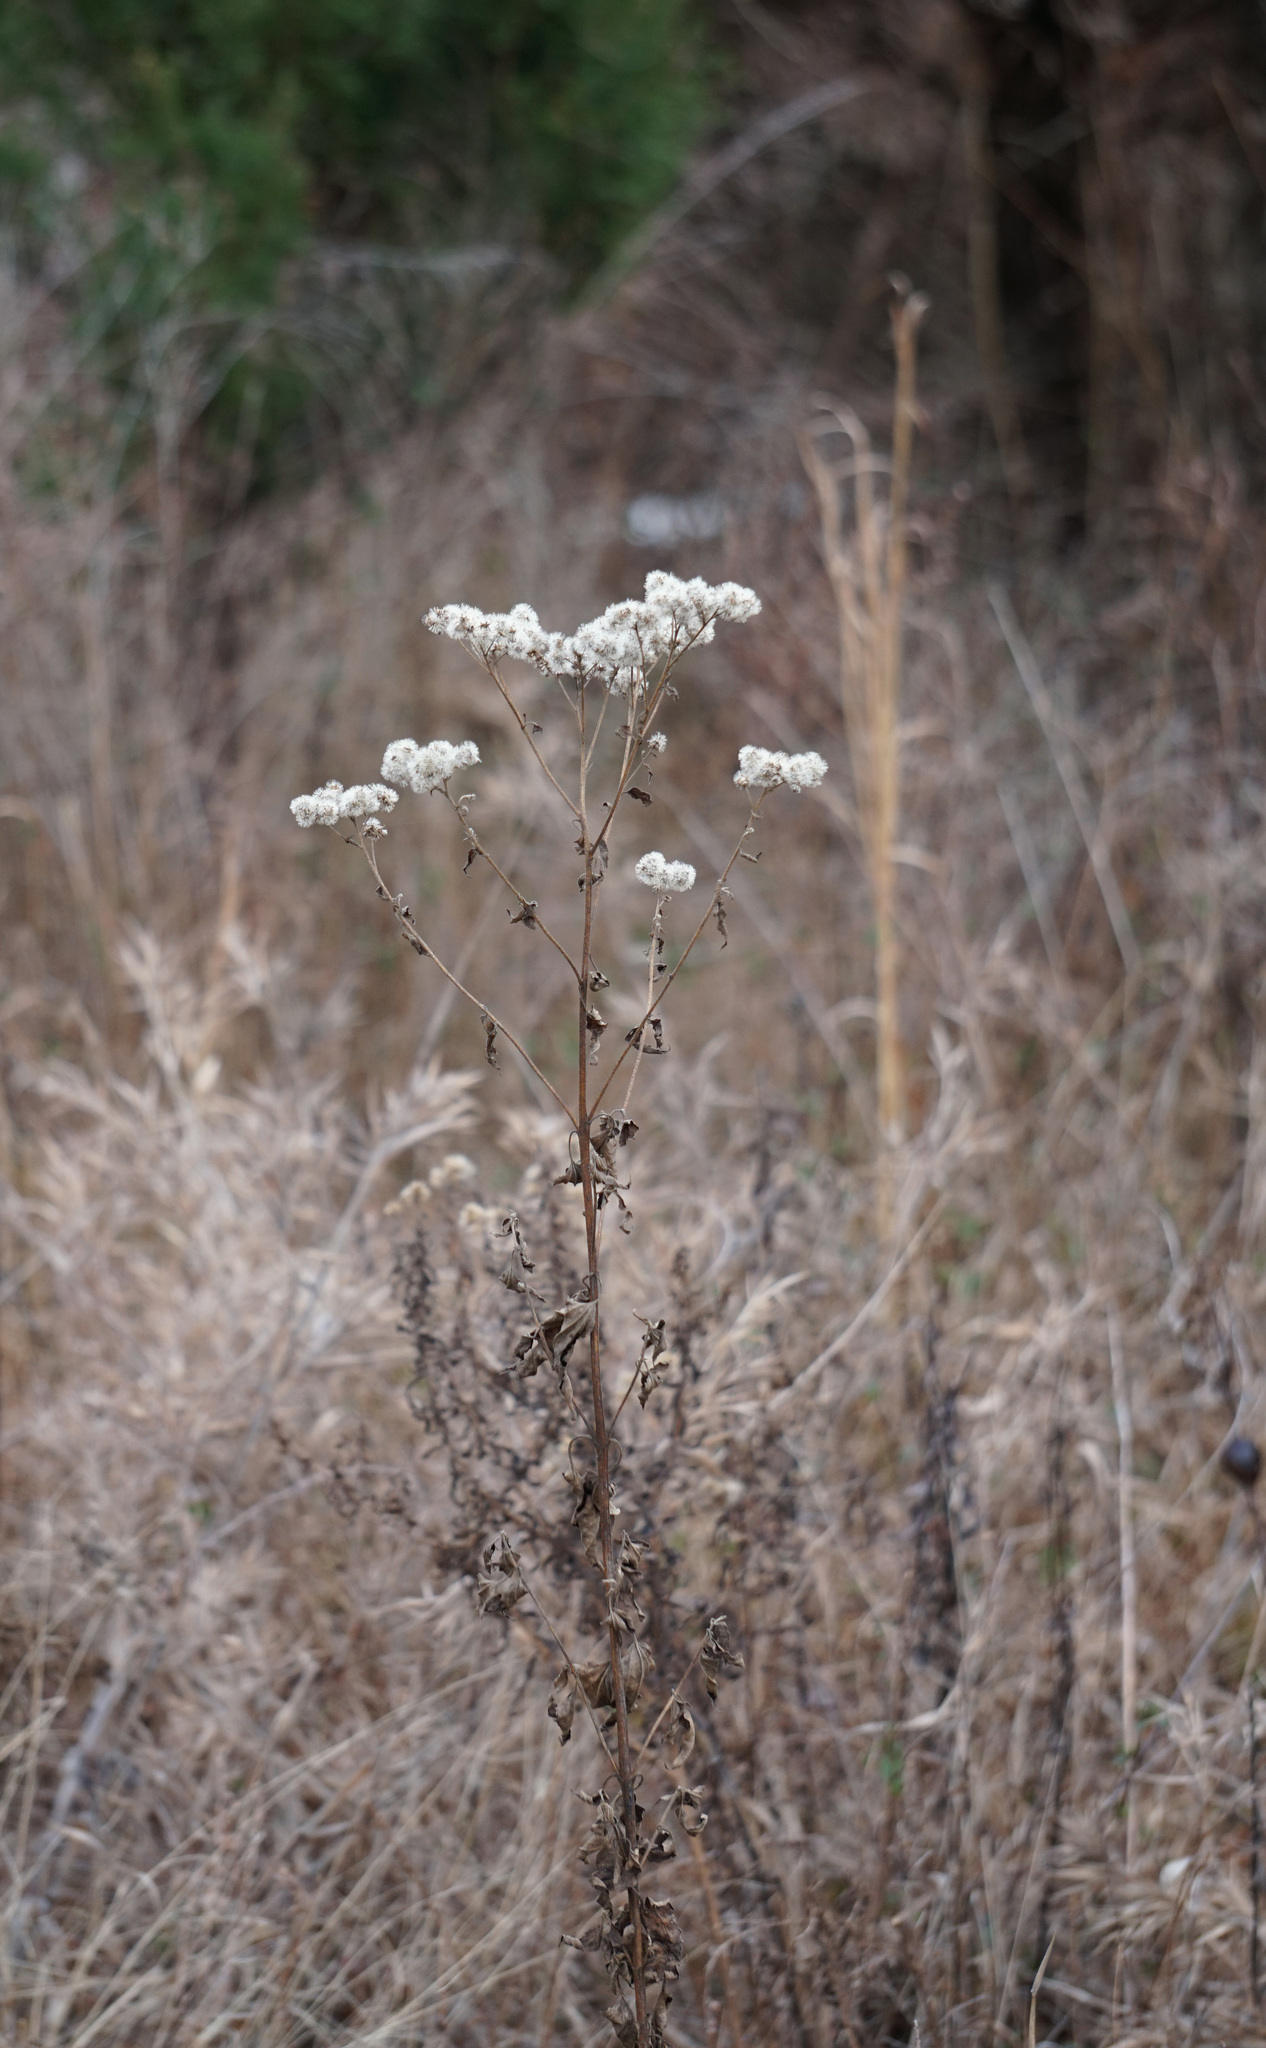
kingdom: Plantae
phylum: Tracheophyta
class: Magnoliopsida
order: Asterales
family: Asteraceae
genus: Eupatorium
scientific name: Eupatorium serotinum
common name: Late boneset
